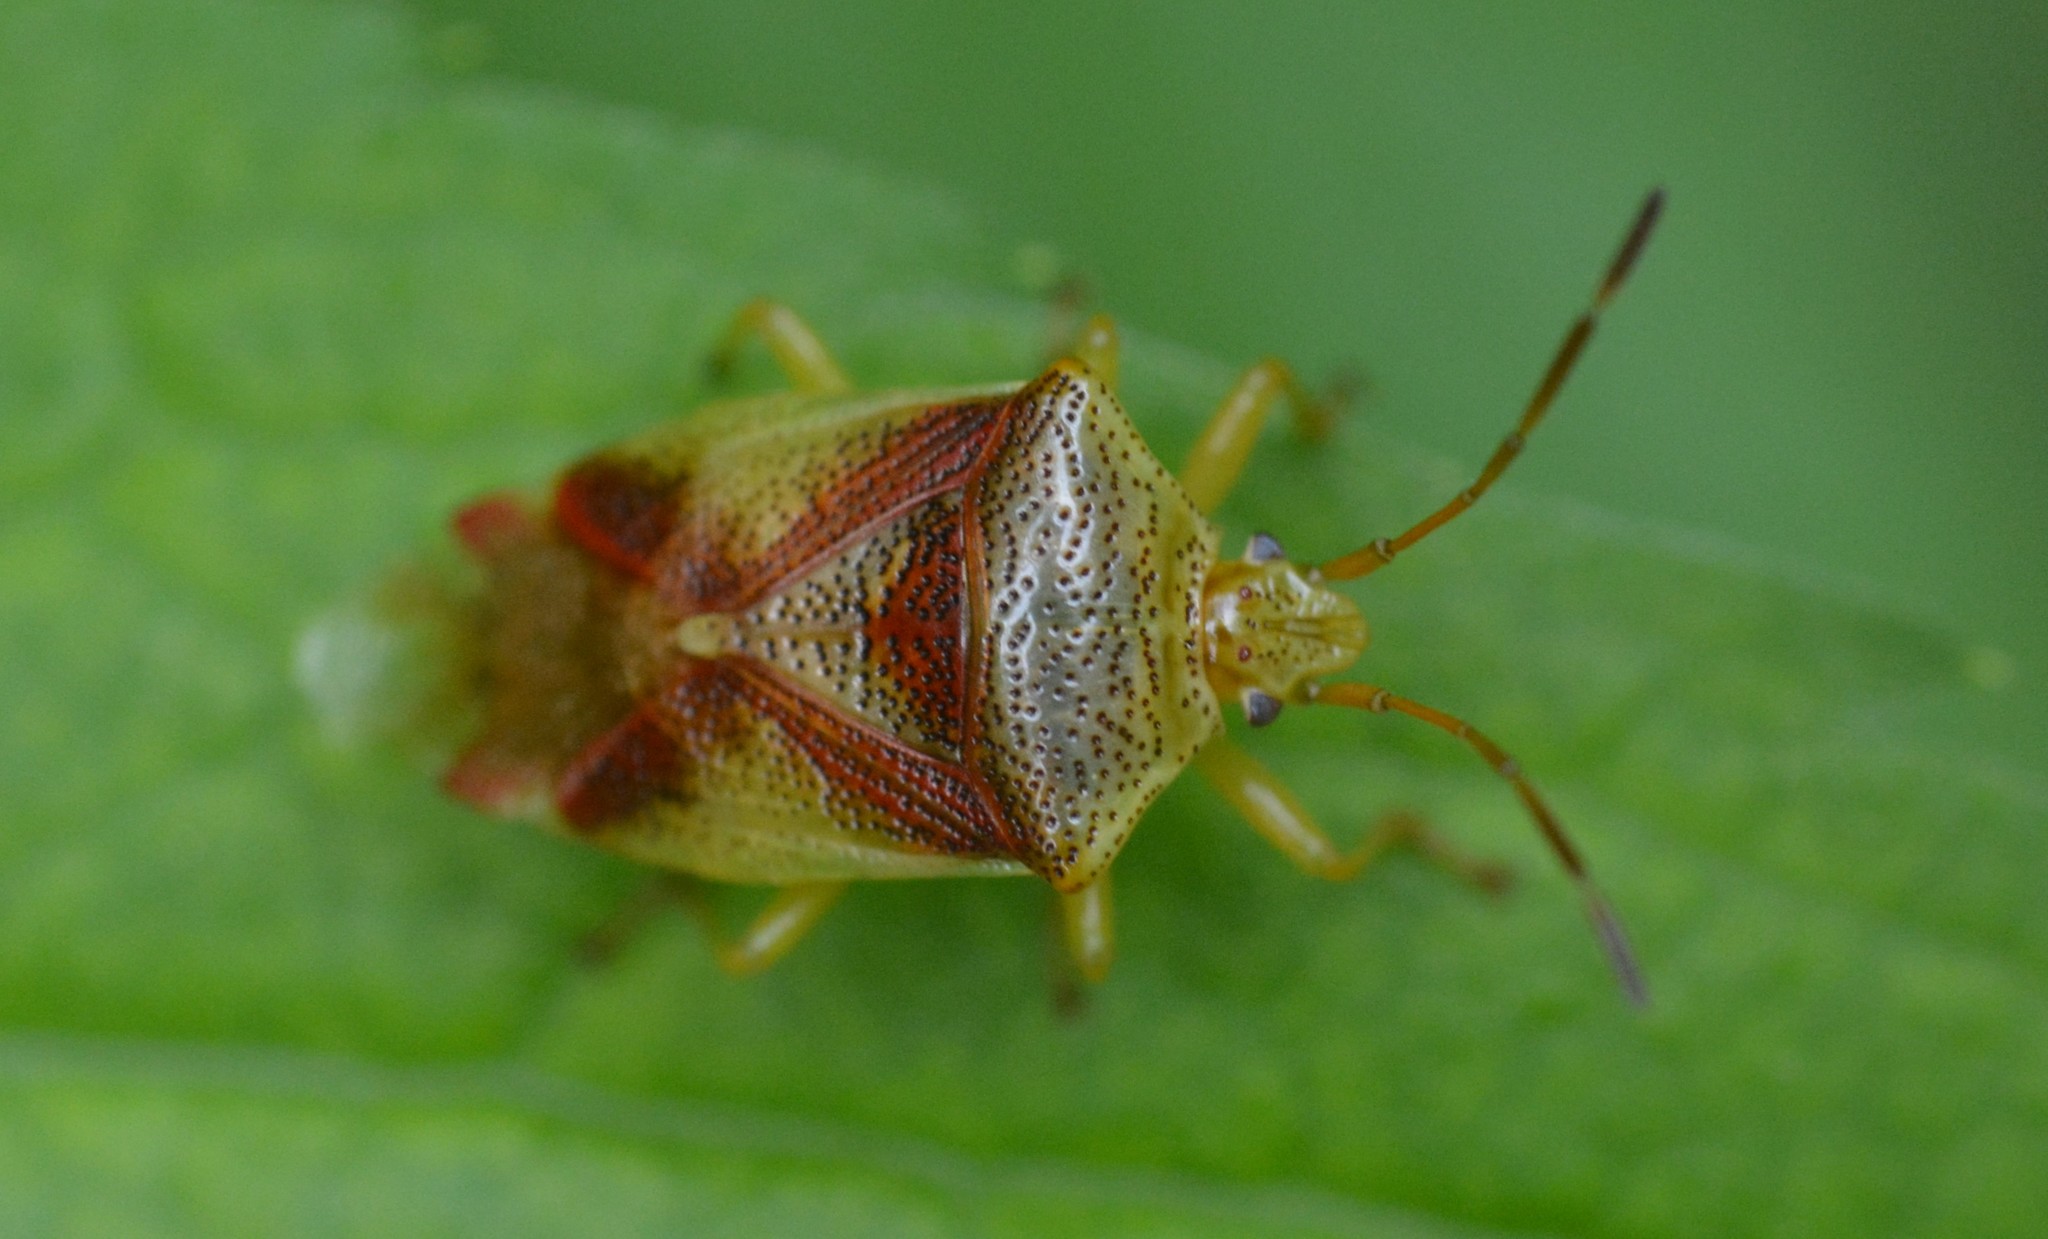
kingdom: Animalia
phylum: Arthropoda
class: Insecta
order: Hemiptera
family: Acanthosomatidae
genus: Elasmostethus
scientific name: Elasmostethus cruciatus
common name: Red-cross shield bug
